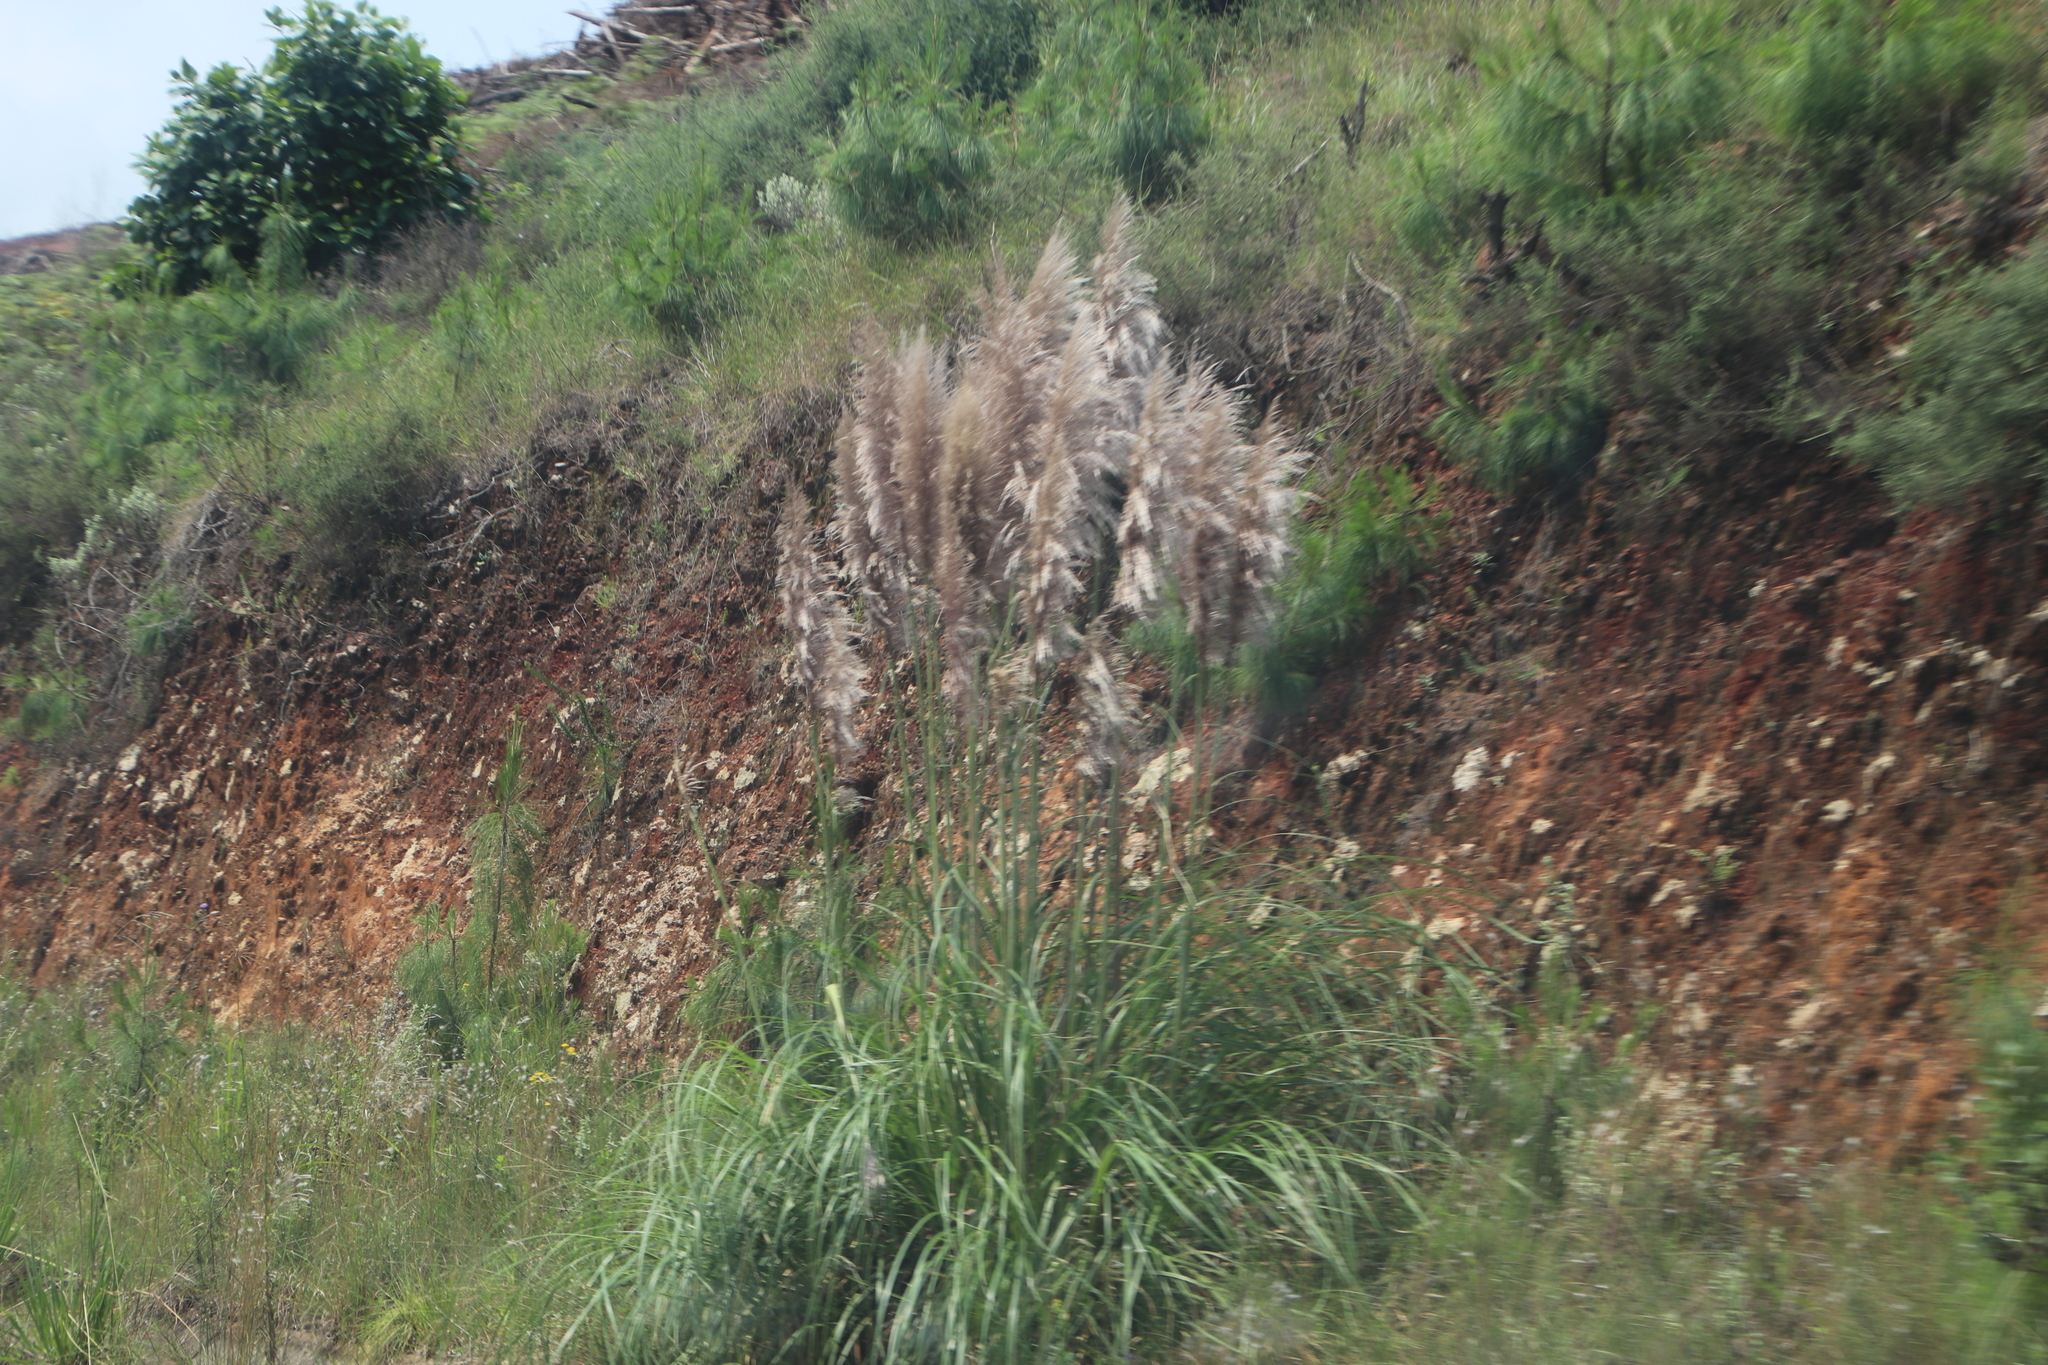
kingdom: Plantae
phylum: Tracheophyta
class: Liliopsida
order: Poales
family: Poaceae
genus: Cortaderia
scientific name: Cortaderia selloana
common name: Uruguayan pampas grass
